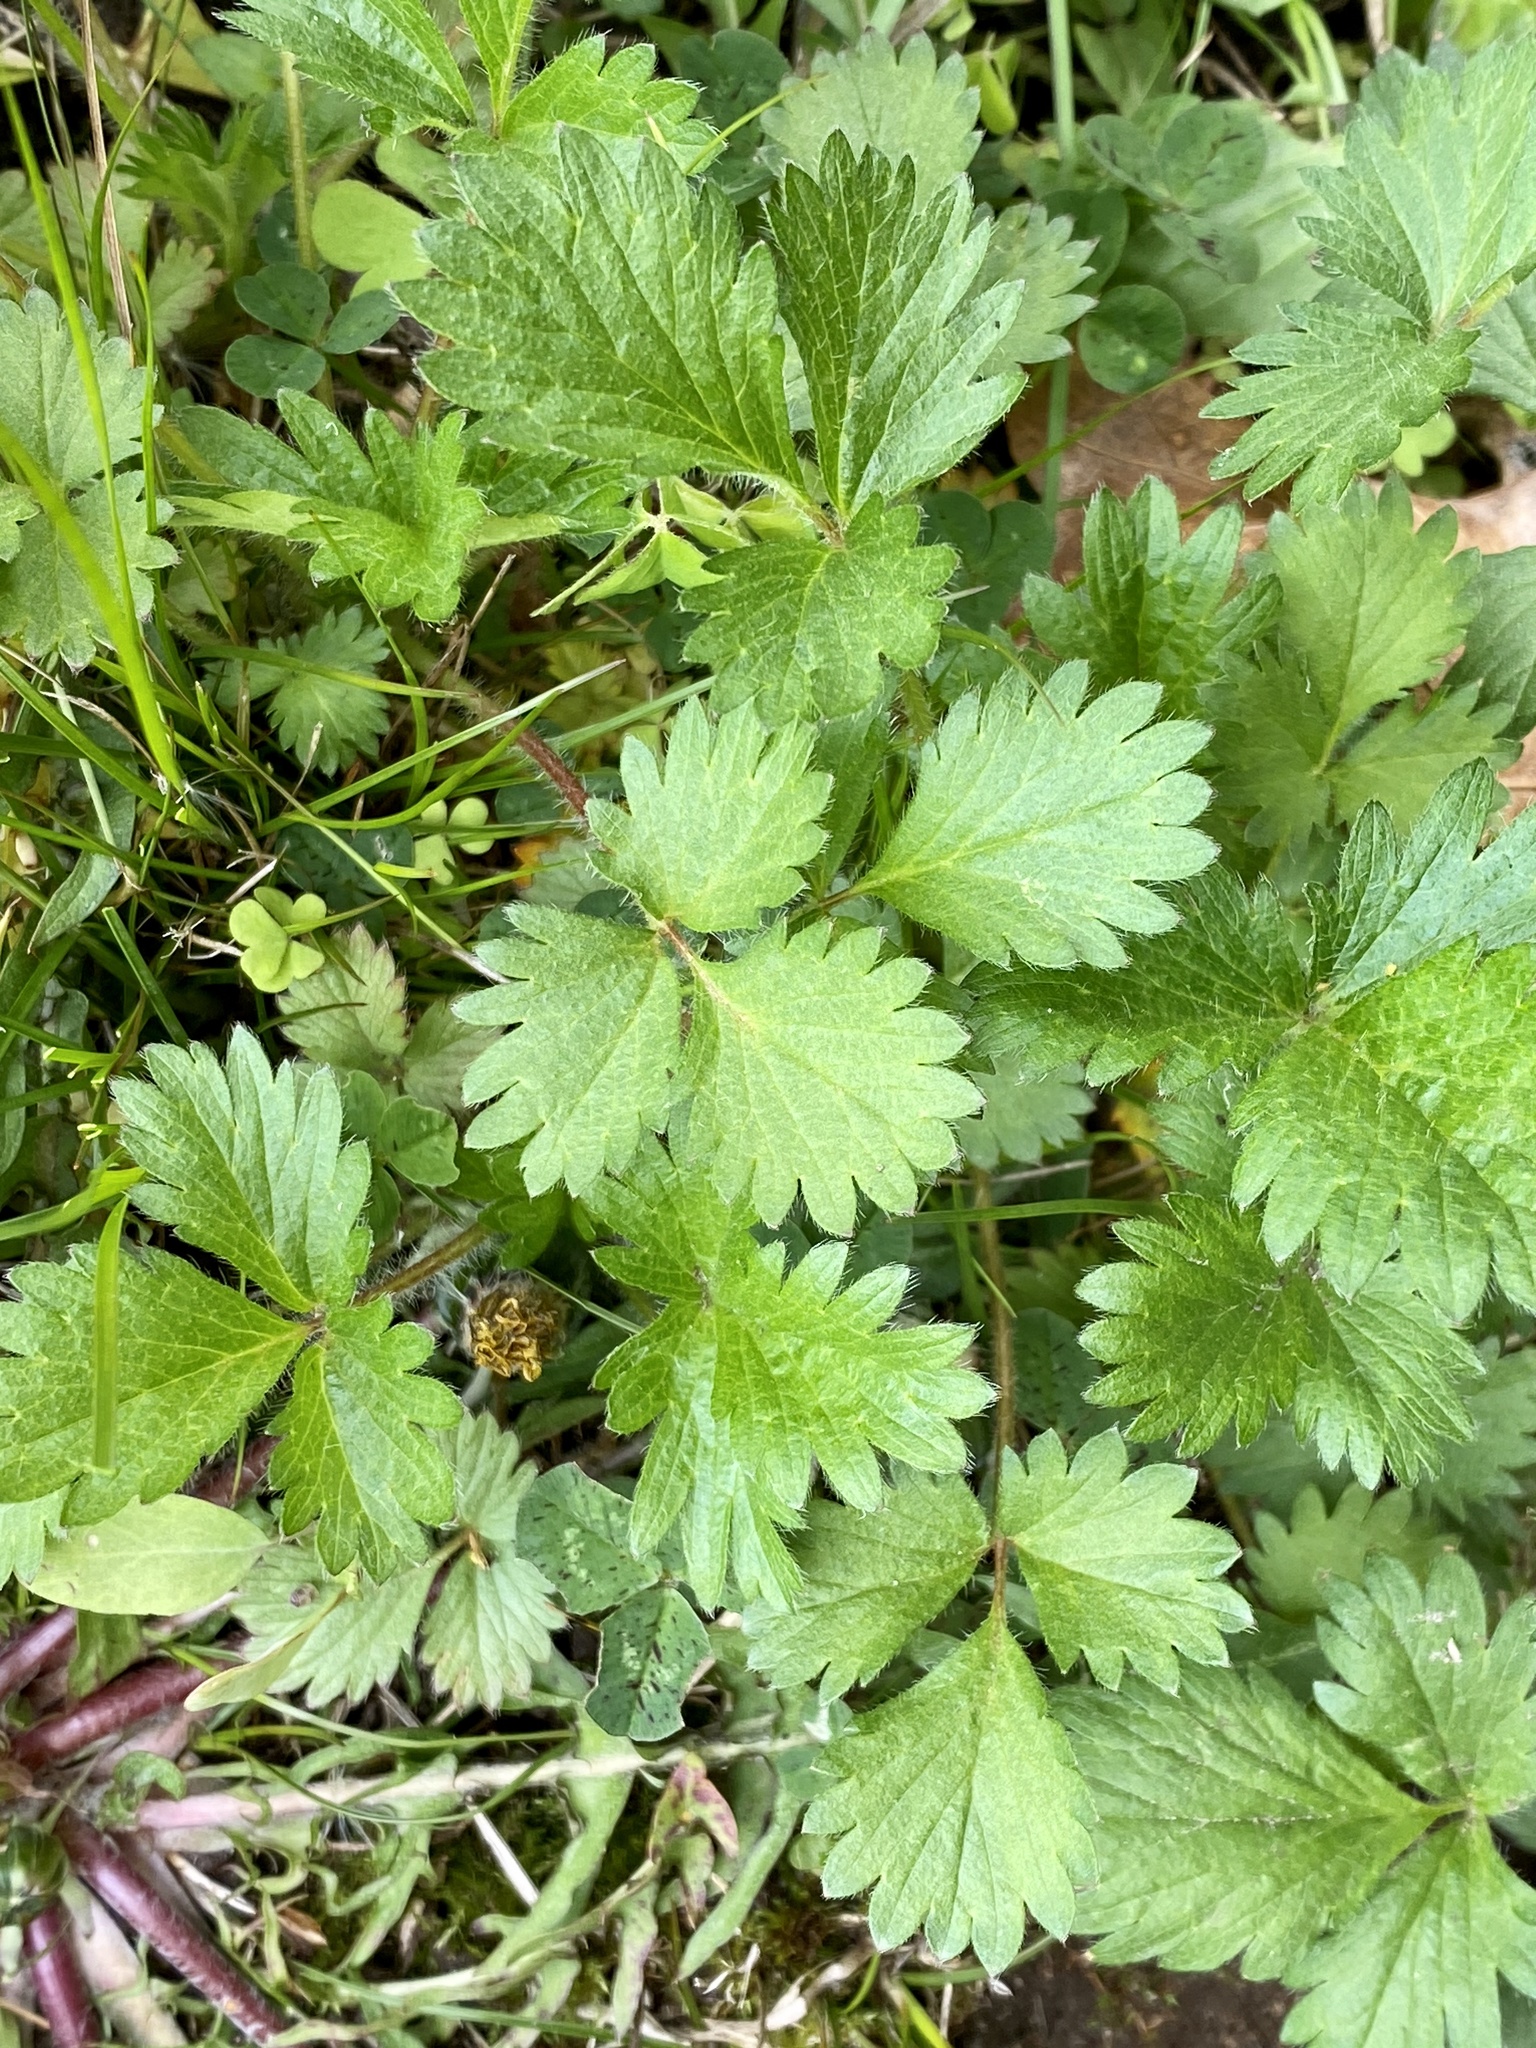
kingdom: Plantae
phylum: Tracheophyta
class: Magnoliopsida
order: Rosales
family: Rosaceae
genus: Potentilla
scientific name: Potentilla norvegica
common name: Ternate-leaved cinquefoil
